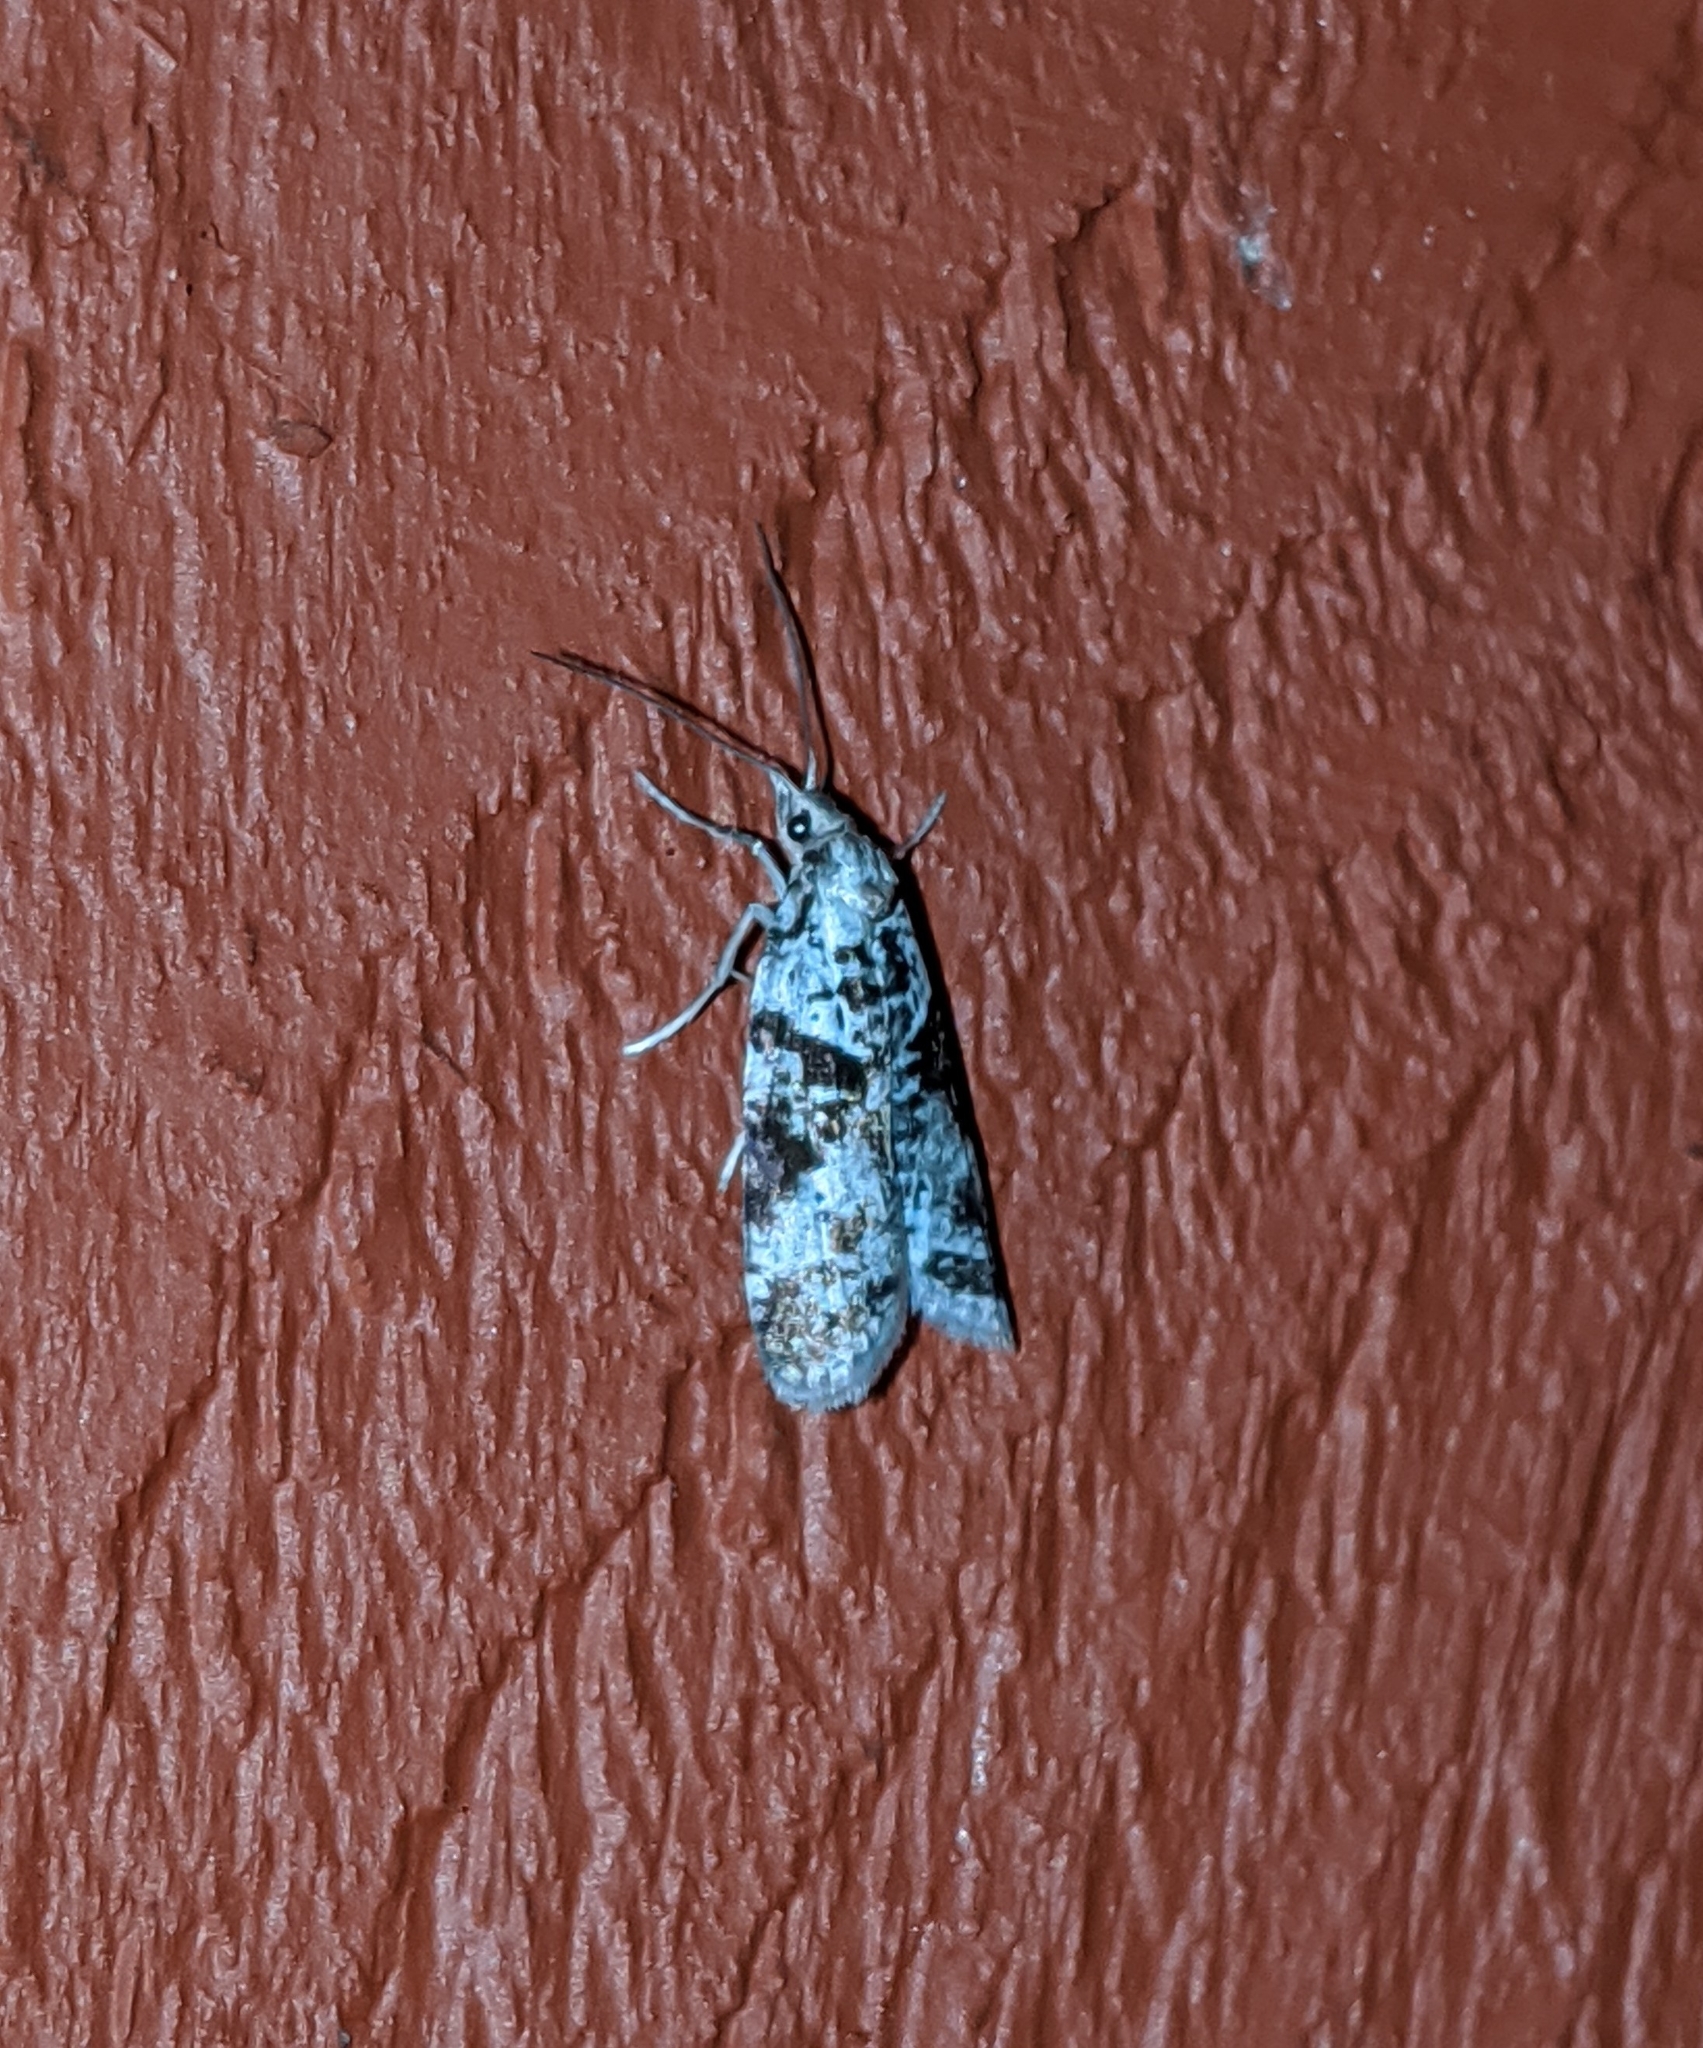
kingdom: Animalia
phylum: Arthropoda
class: Insecta
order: Lepidoptera
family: Copromorphidae
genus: Lotisma
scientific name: Lotisma trigonana
